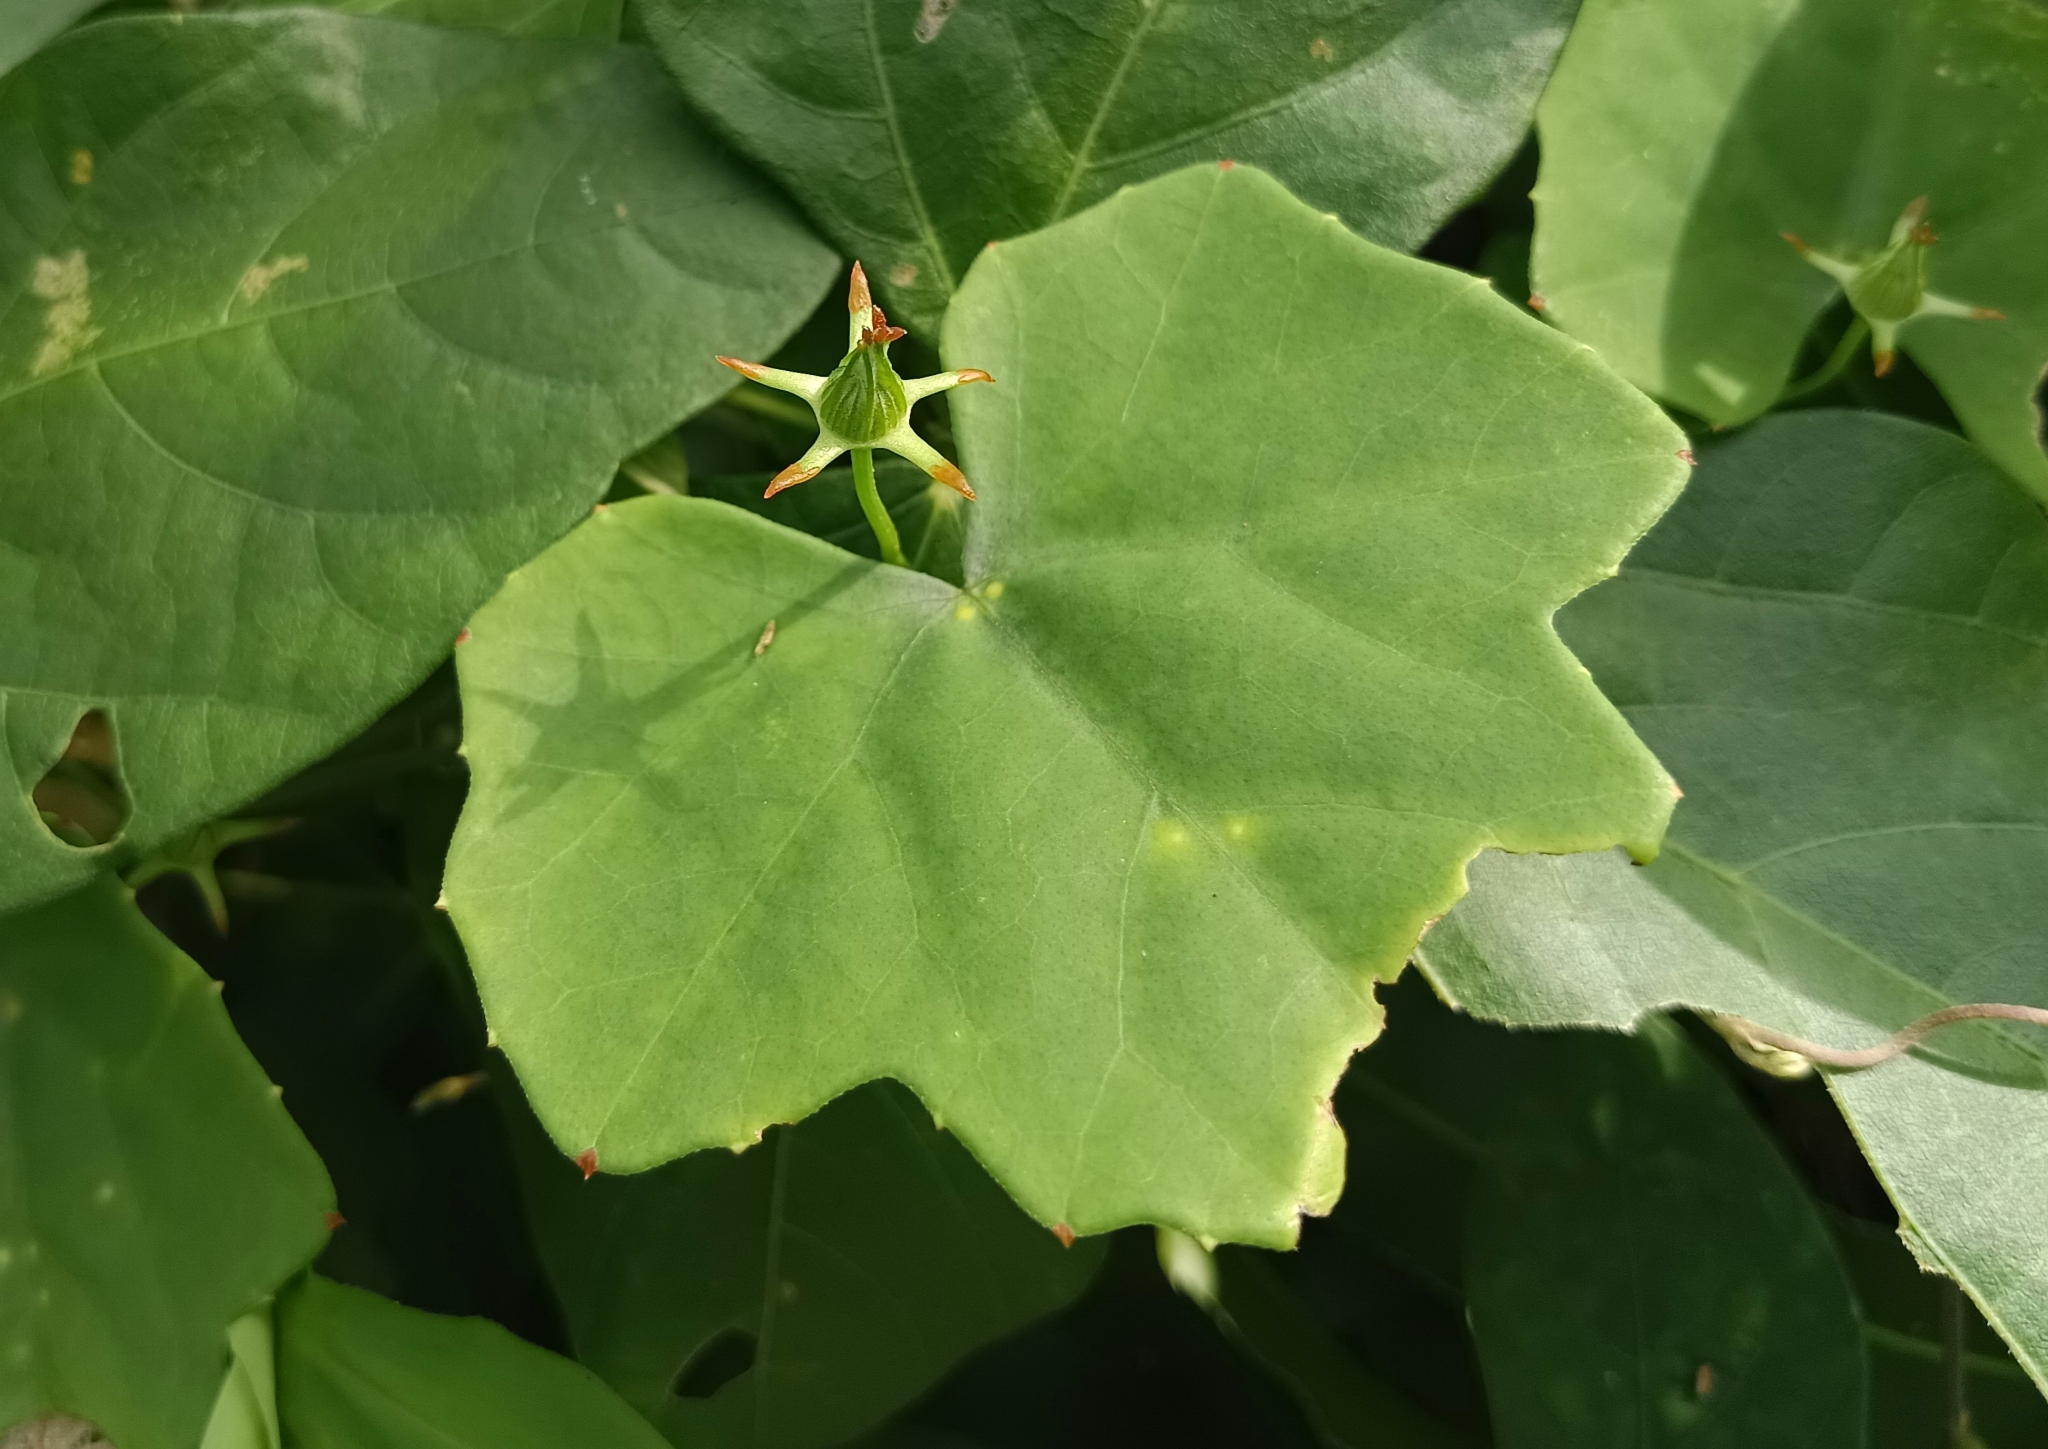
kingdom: Plantae
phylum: Tracheophyta
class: Magnoliopsida
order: Cucurbitales
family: Cucurbitaceae
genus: Coccinia
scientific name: Coccinia grandis
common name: Ivy gourd
